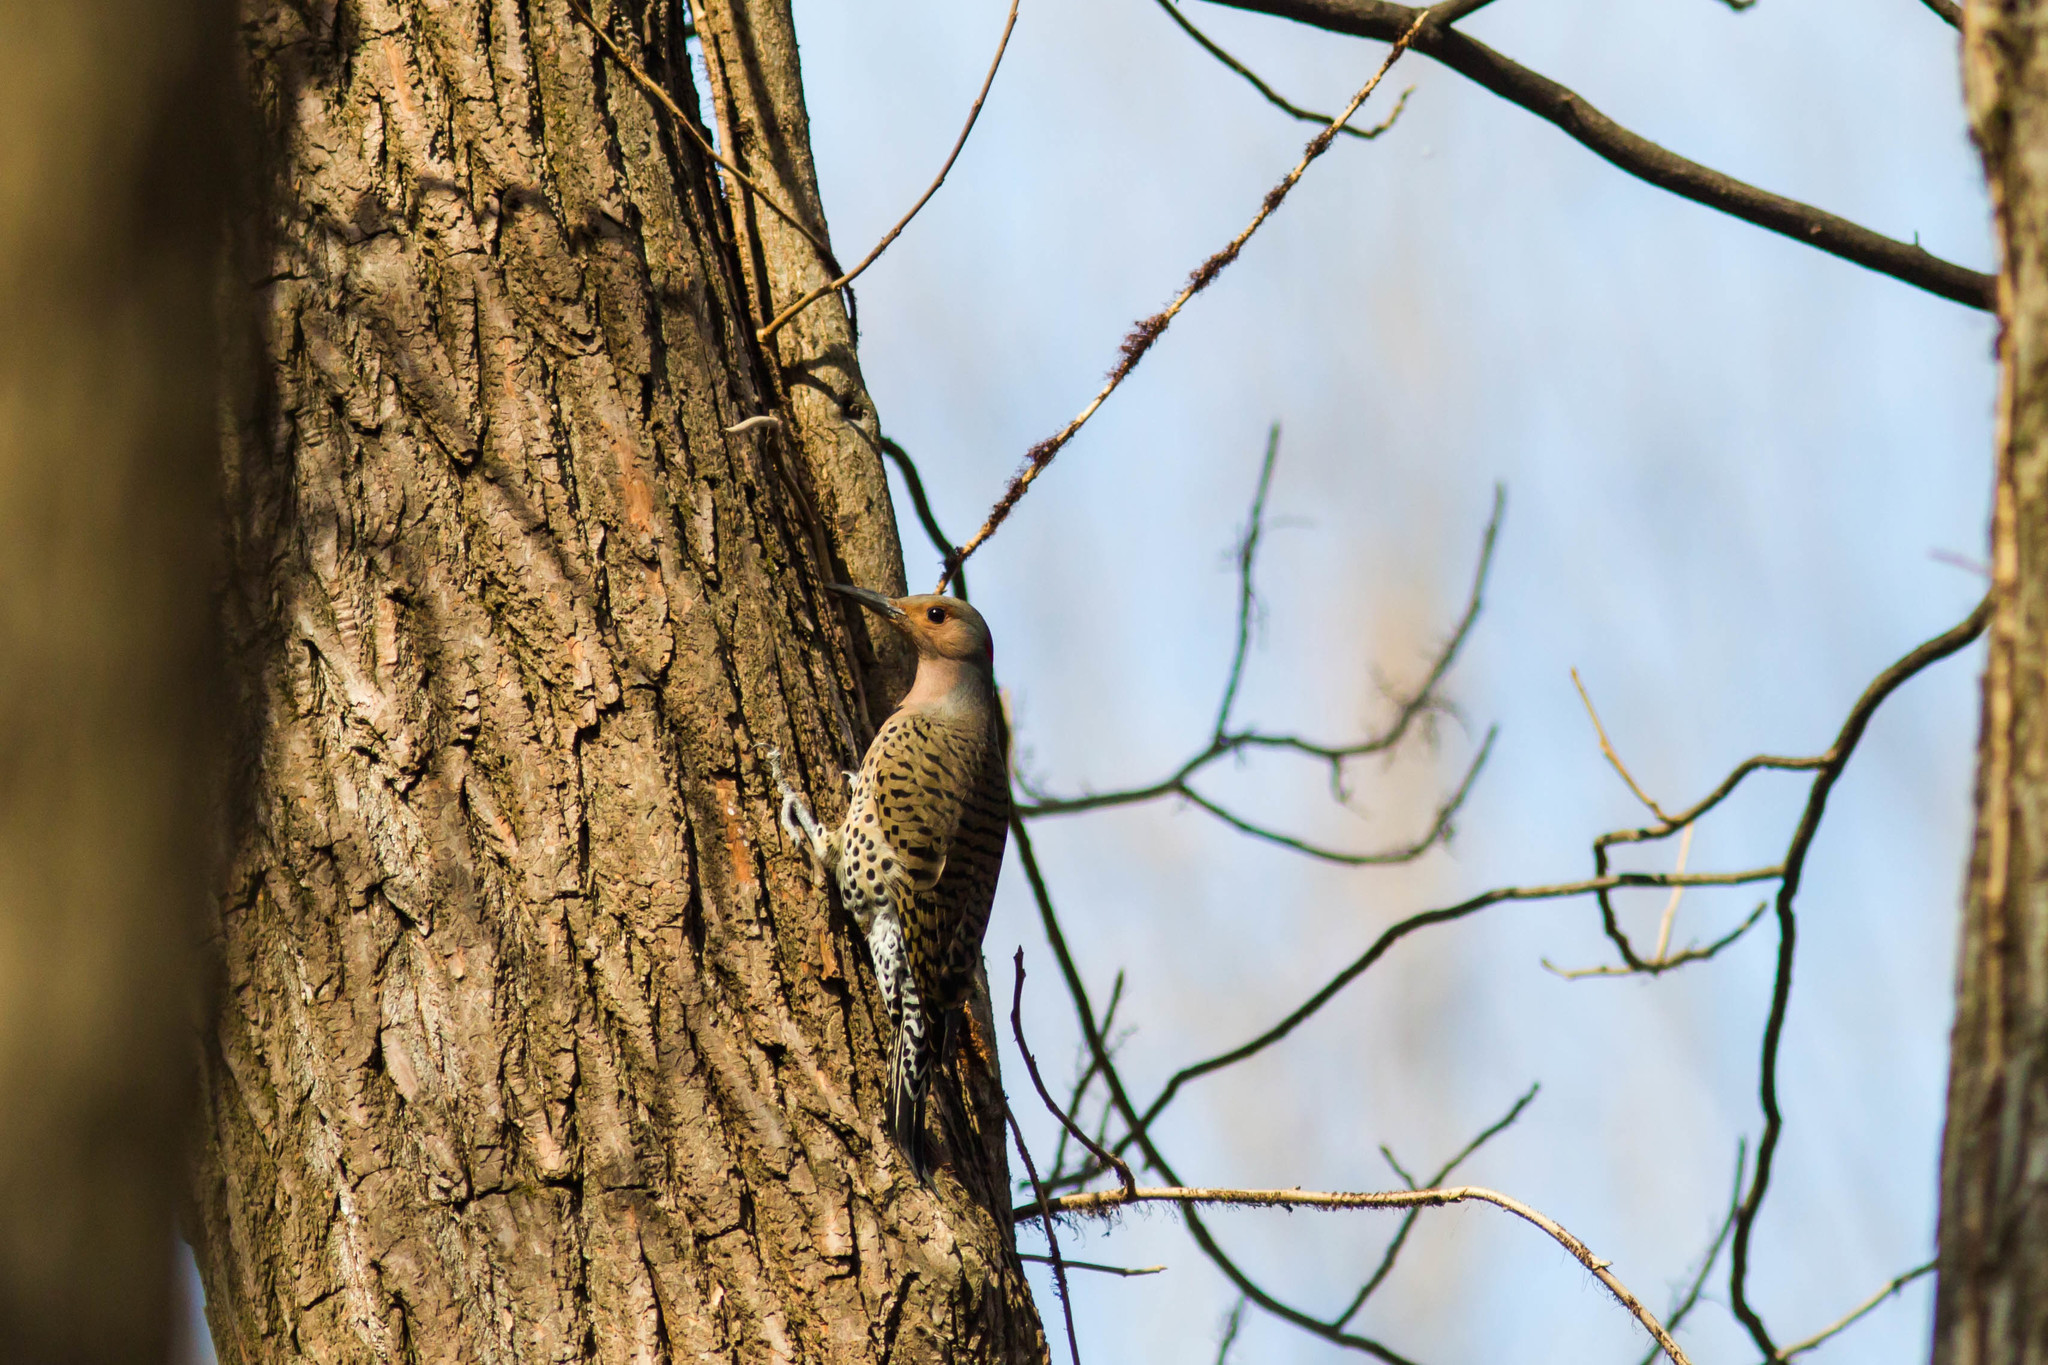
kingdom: Animalia
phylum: Chordata
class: Aves
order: Piciformes
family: Picidae
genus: Colaptes
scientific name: Colaptes auratus
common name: Northern flicker
